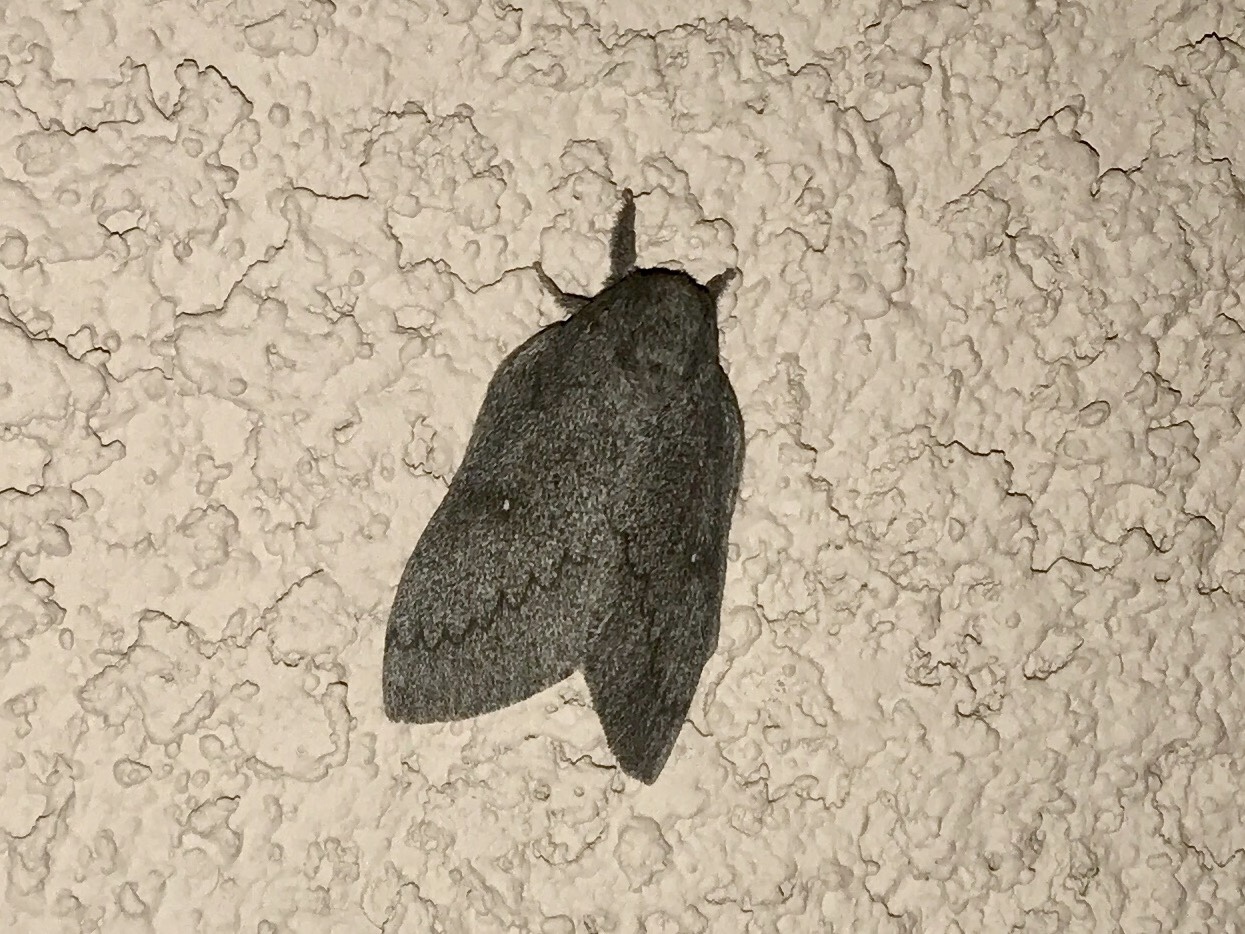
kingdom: Animalia
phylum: Arthropoda
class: Insecta
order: Lepidoptera
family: Saturniidae
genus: Syssphinx
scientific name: Syssphinx hubbardi
